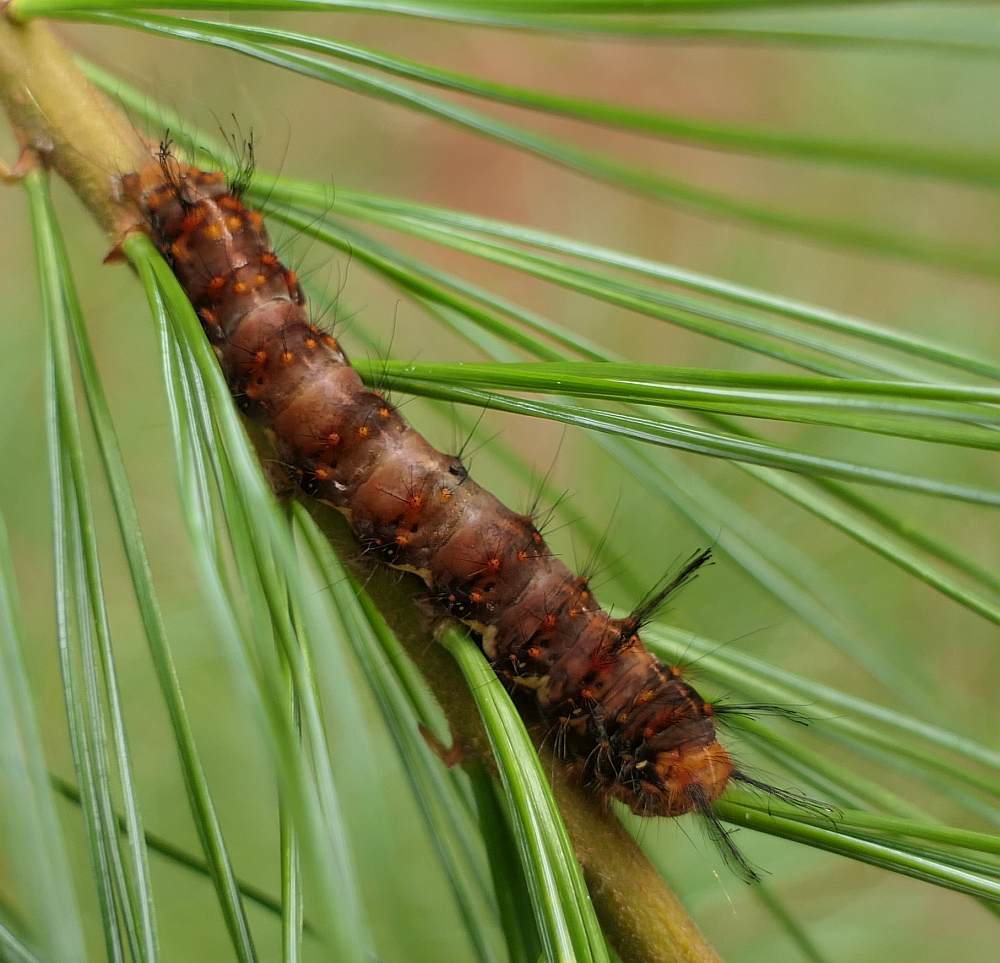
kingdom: Animalia
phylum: Arthropoda
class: Insecta
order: Lepidoptera
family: Noctuidae
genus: Panthea
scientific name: Panthea furcilla
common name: Eastern panthea moth
